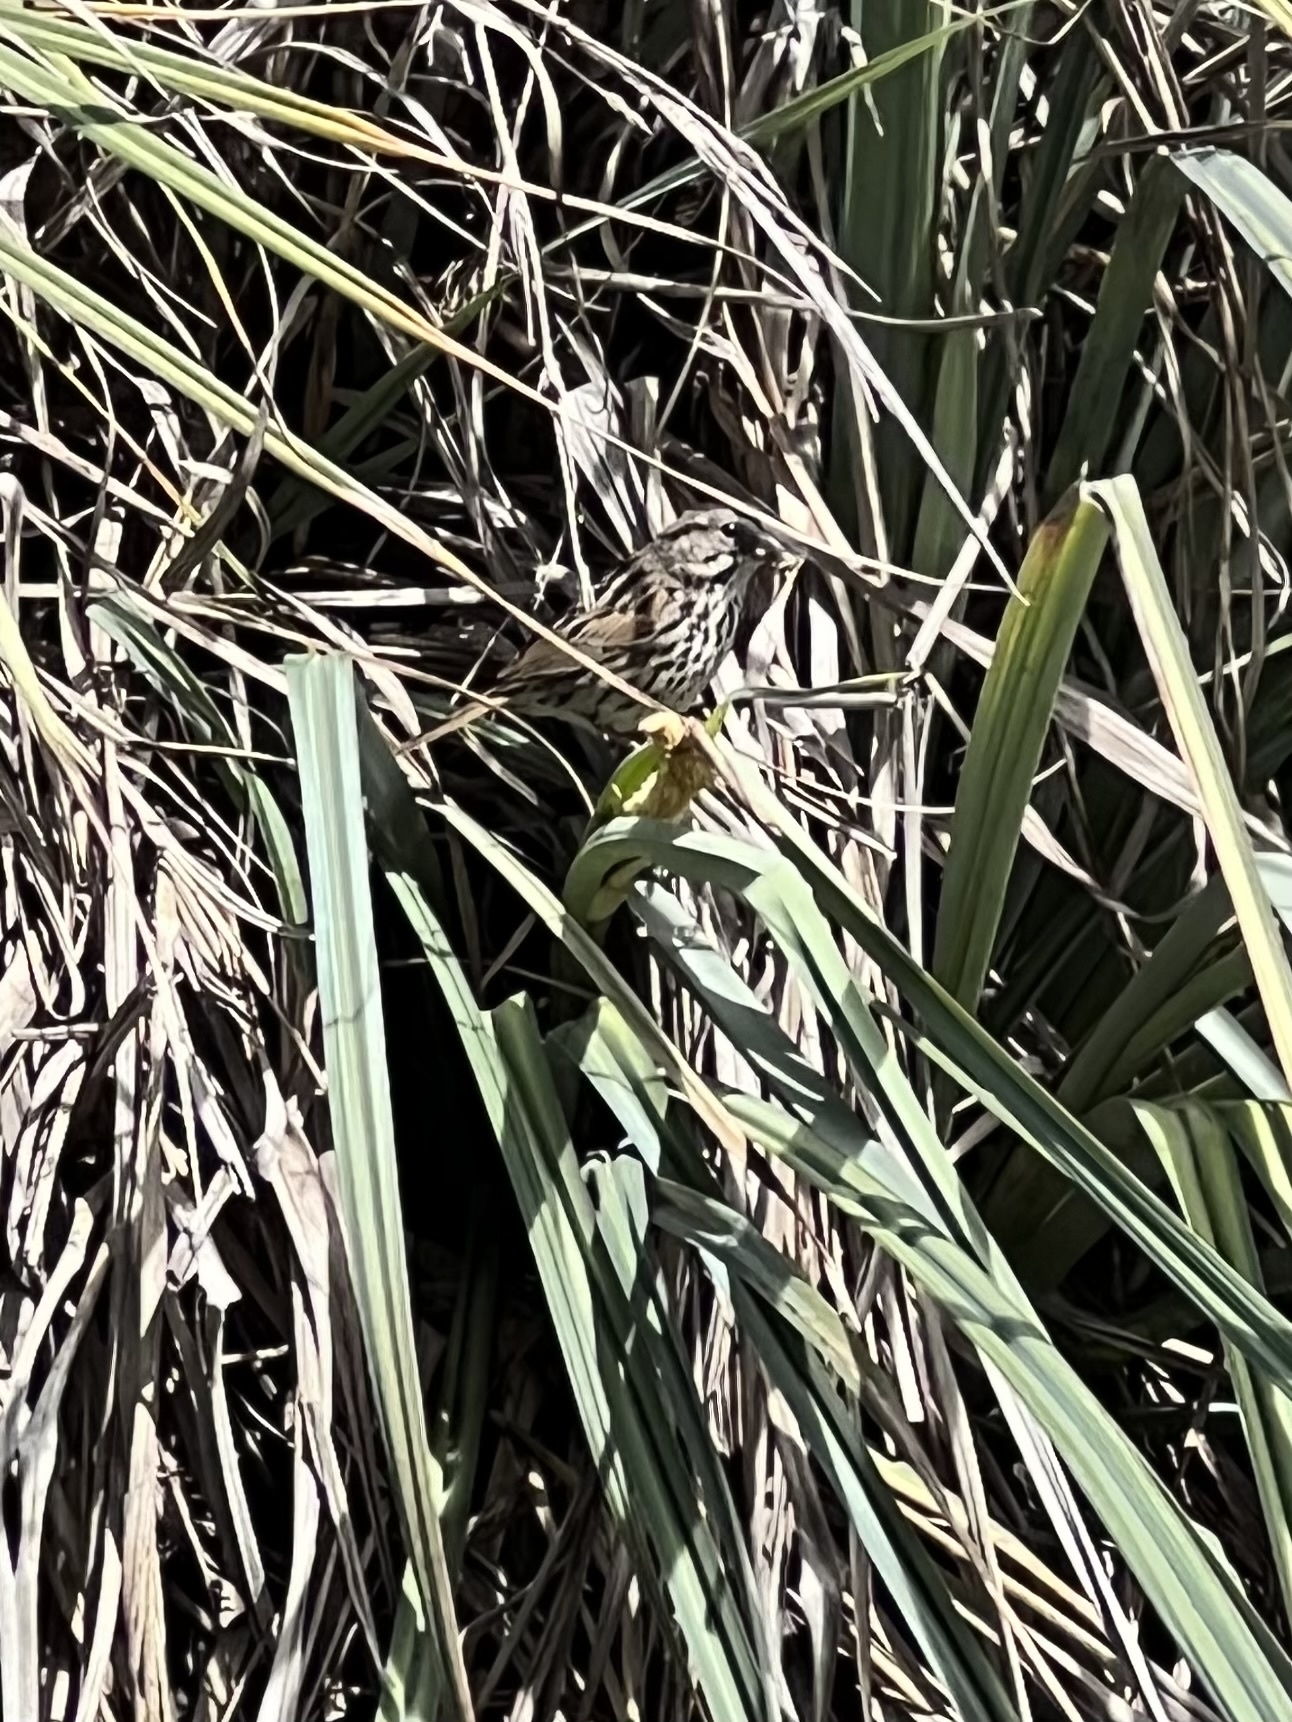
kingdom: Animalia
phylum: Chordata
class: Aves
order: Passeriformes
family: Passerellidae
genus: Melospiza
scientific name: Melospiza melodia
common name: Song sparrow
